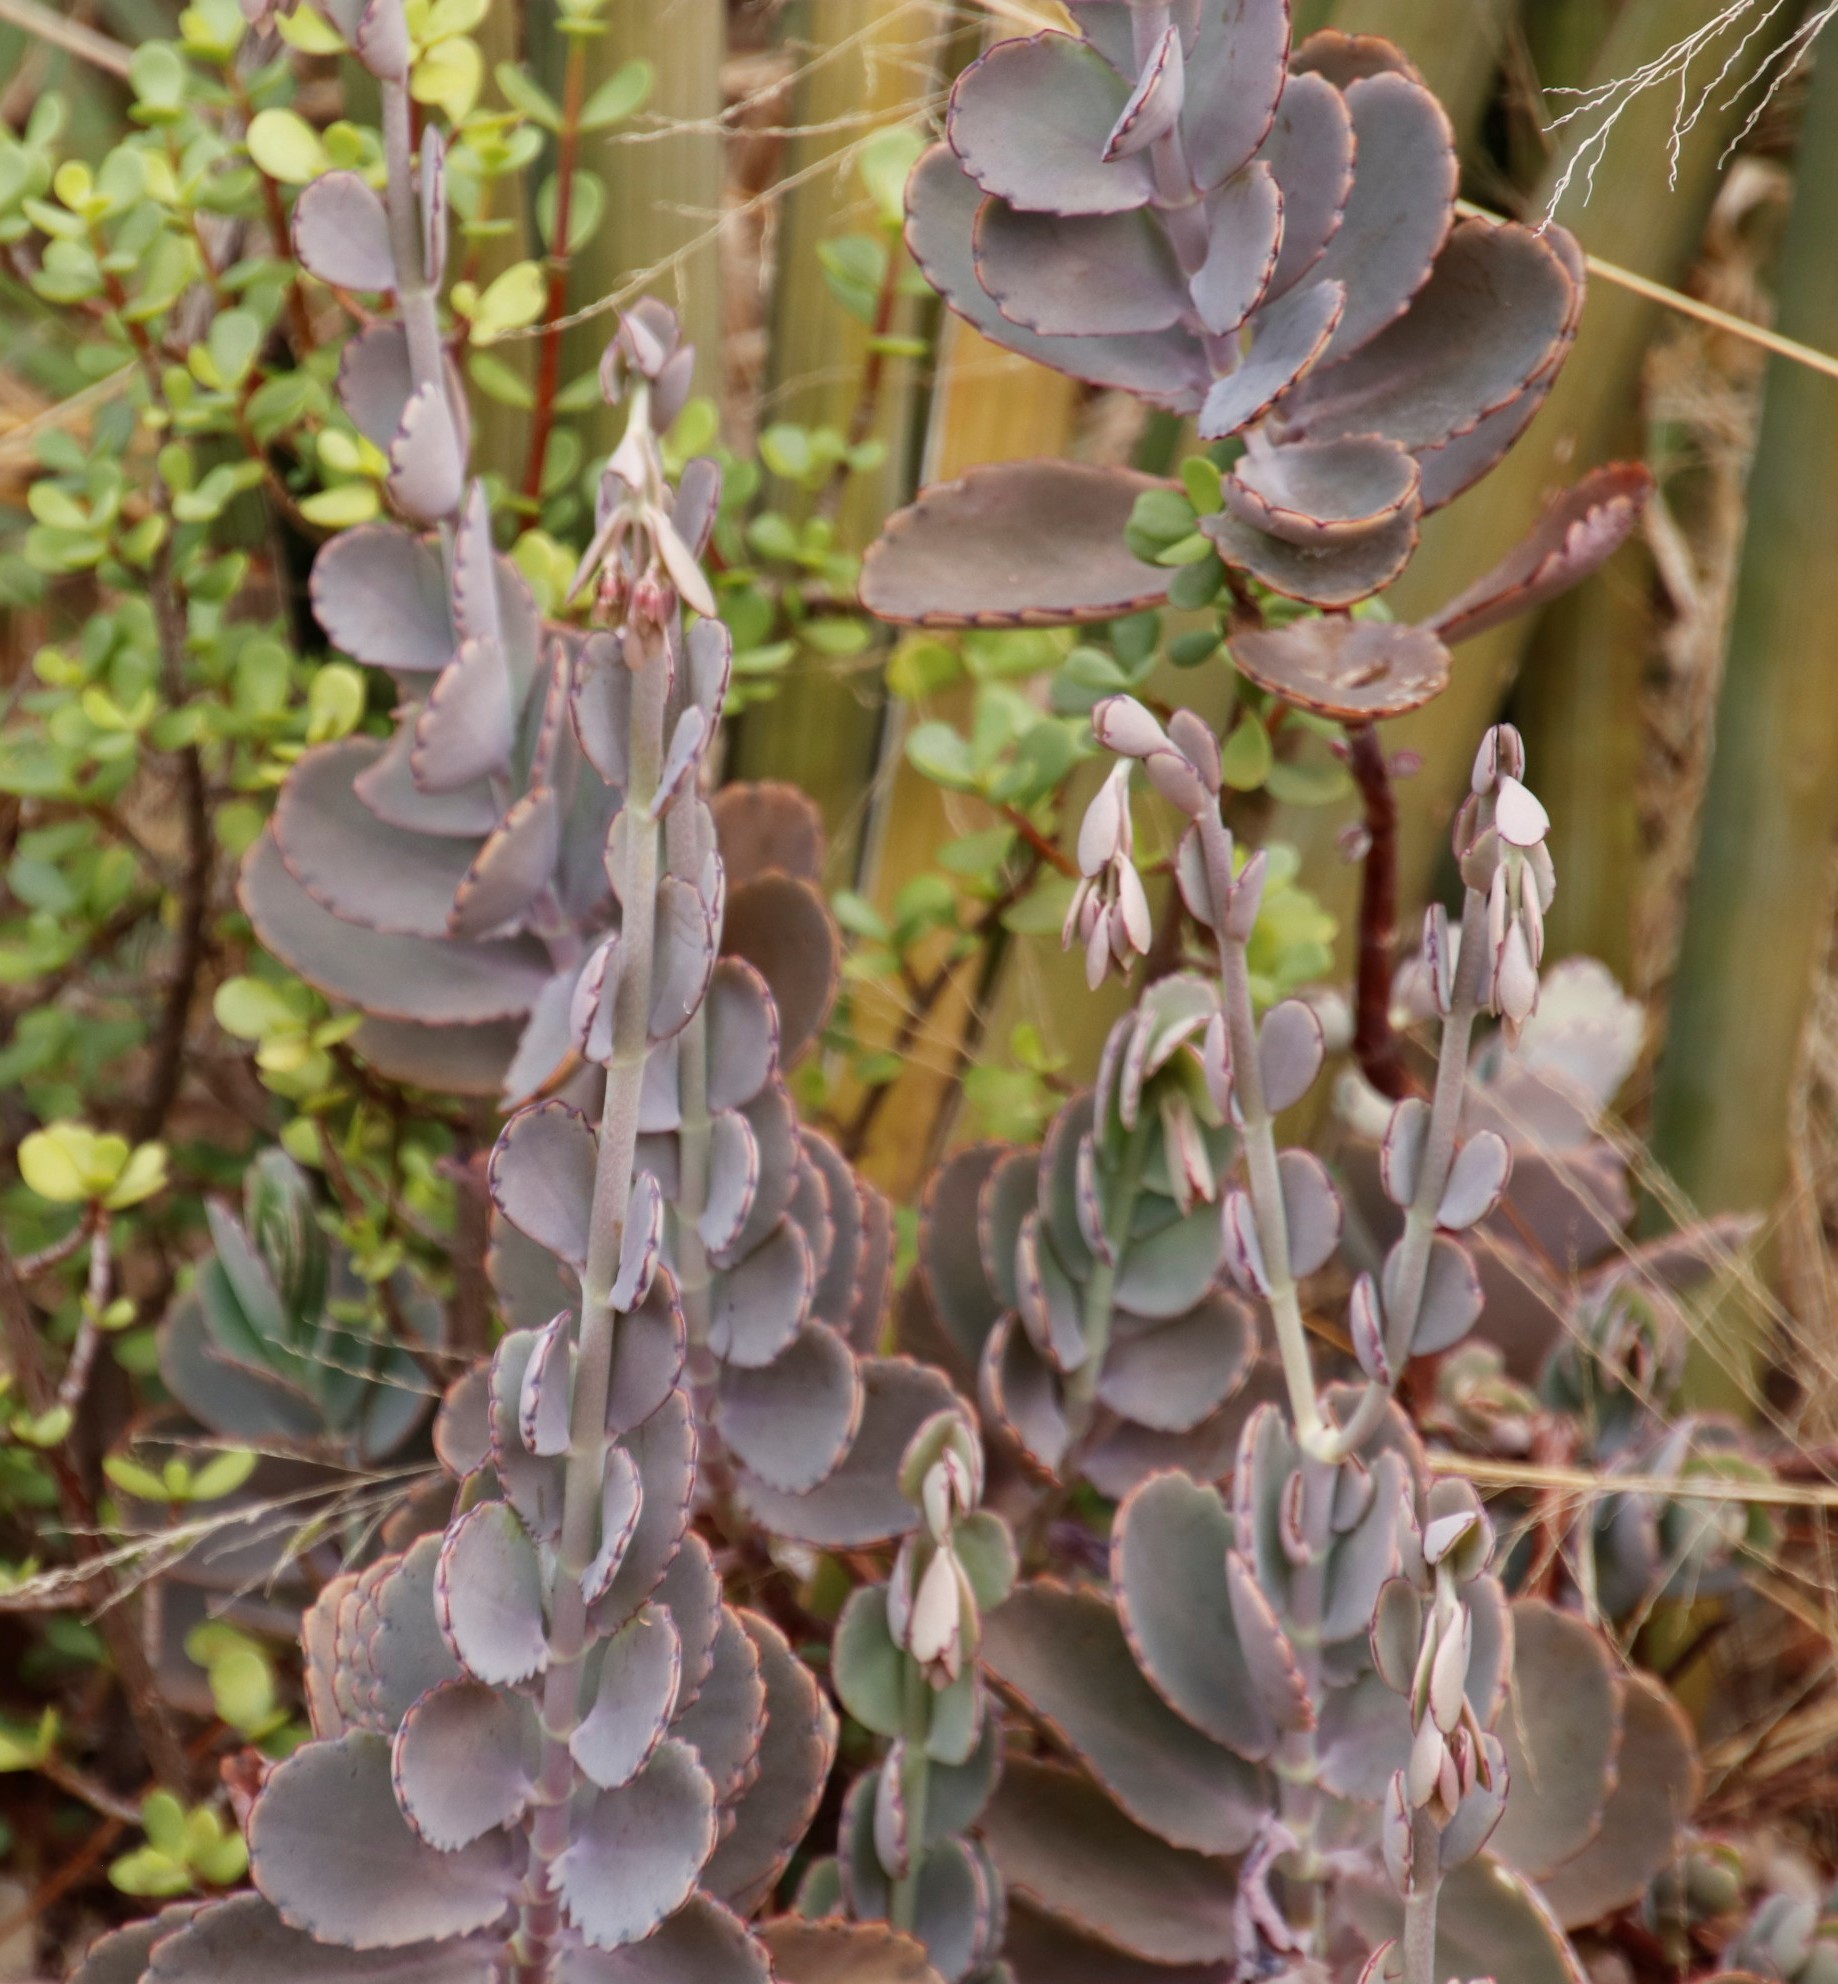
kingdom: Plantae
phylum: Tracheophyta
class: Magnoliopsida
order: Saxifragales
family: Crassulaceae
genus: Kalanchoe
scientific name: Kalanchoe fedtschenkoi
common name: Lavender scallops
